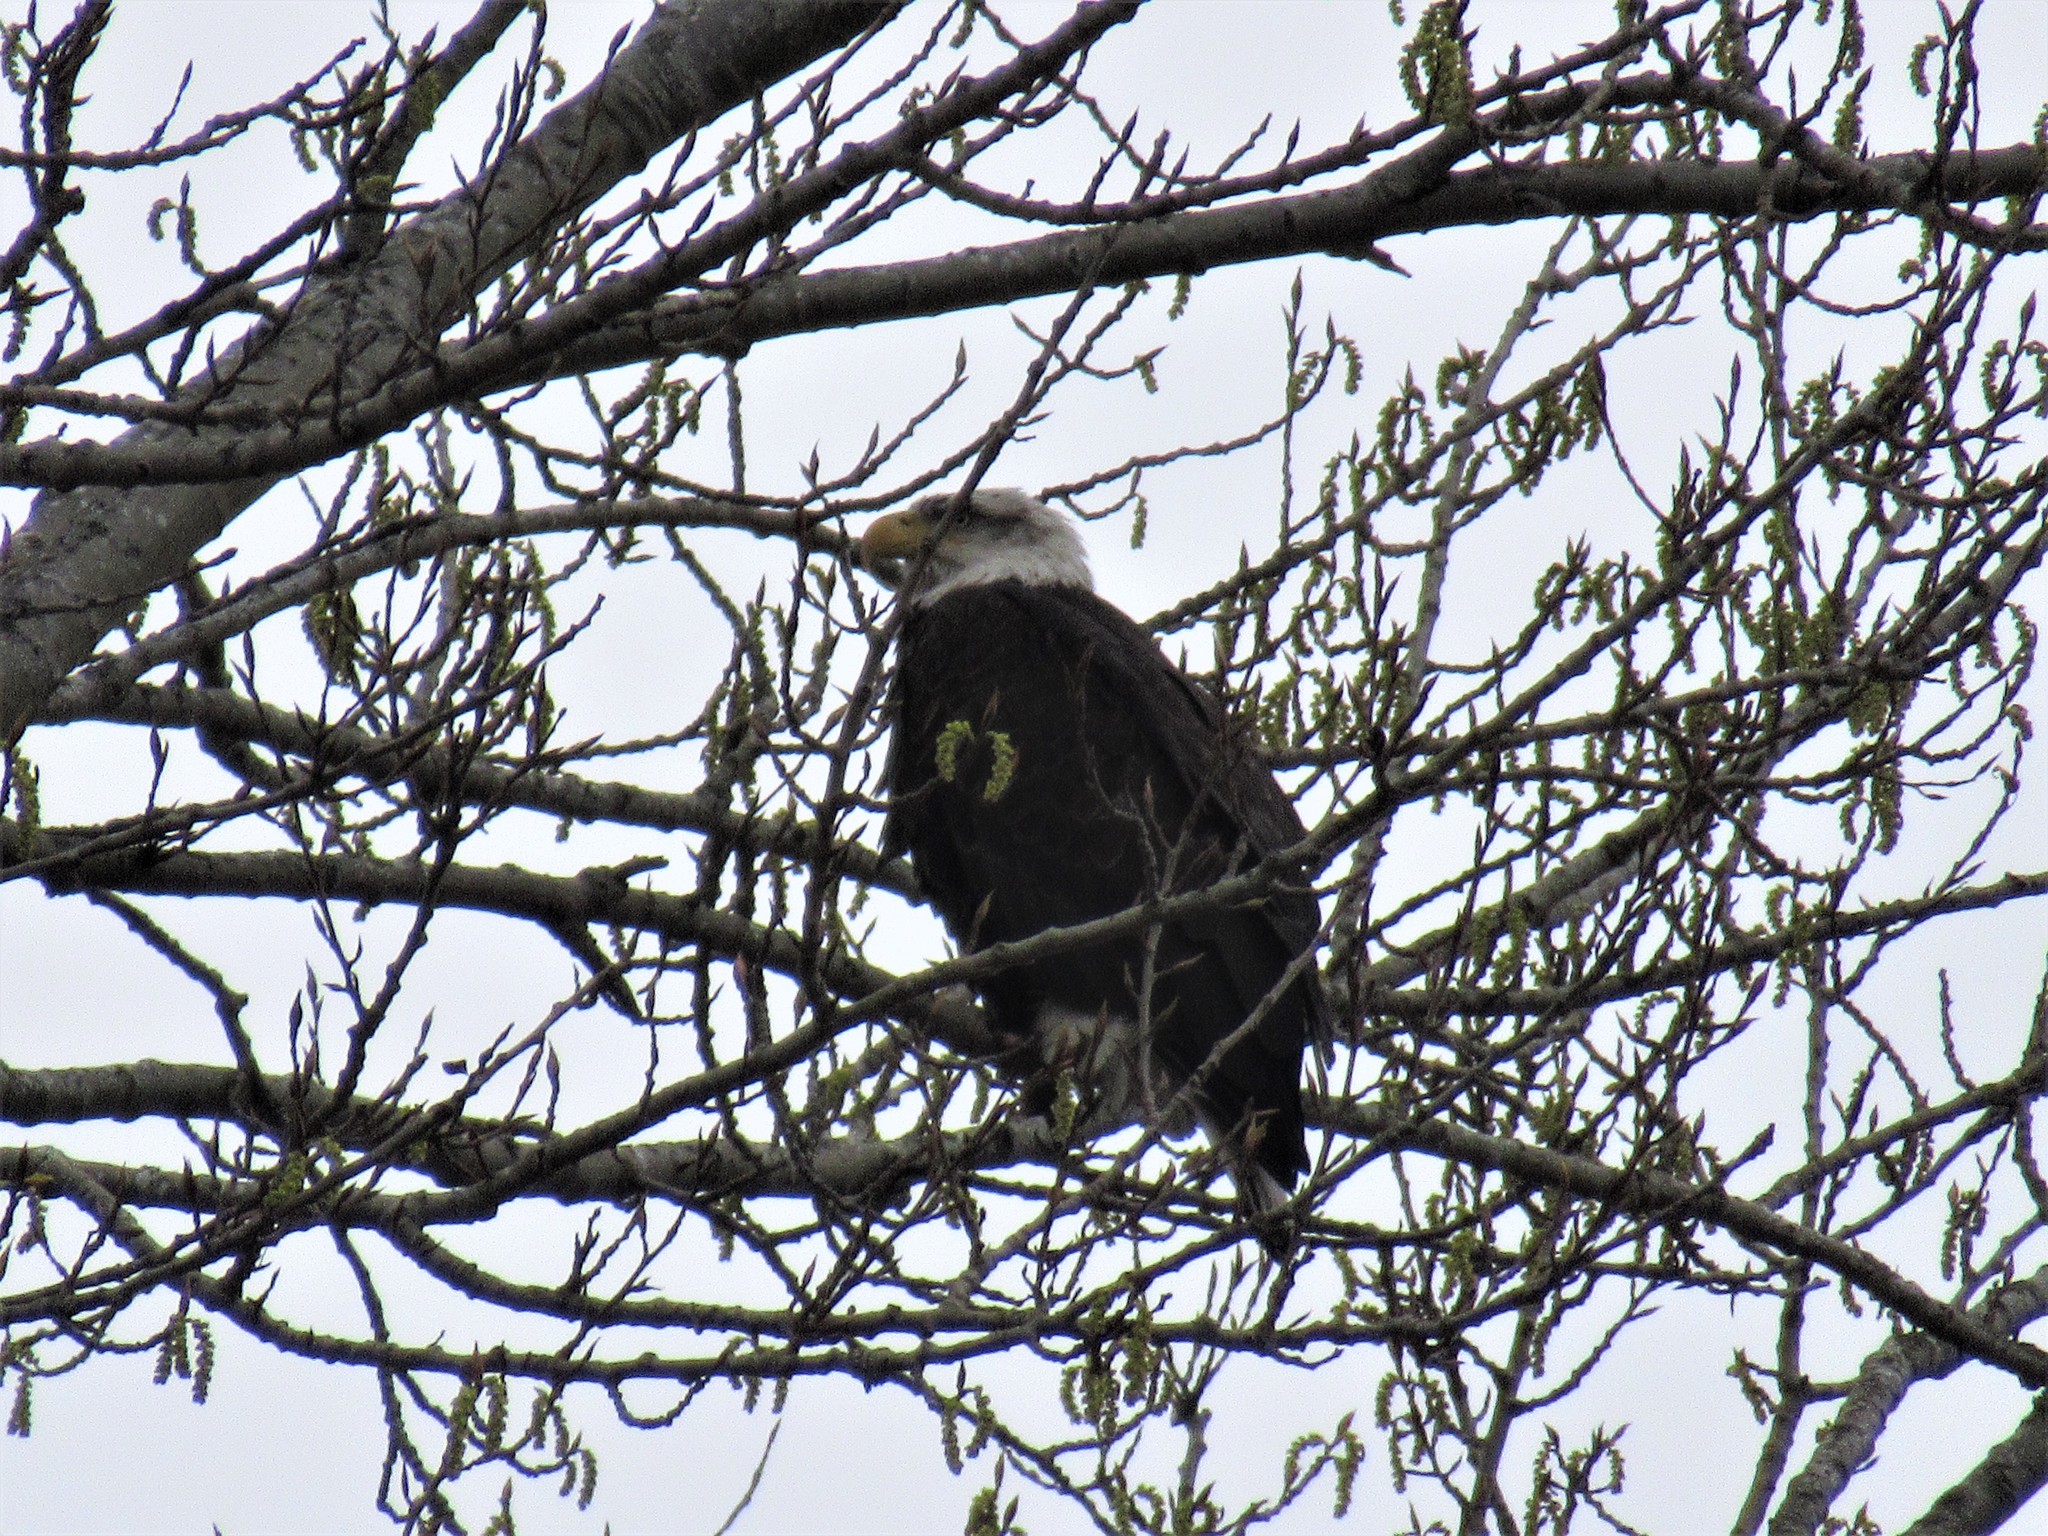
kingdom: Animalia
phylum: Chordata
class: Aves
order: Accipitriformes
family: Accipitridae
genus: Haliaeetus
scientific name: Haliaeetus leucocephalus
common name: Bald eagle
